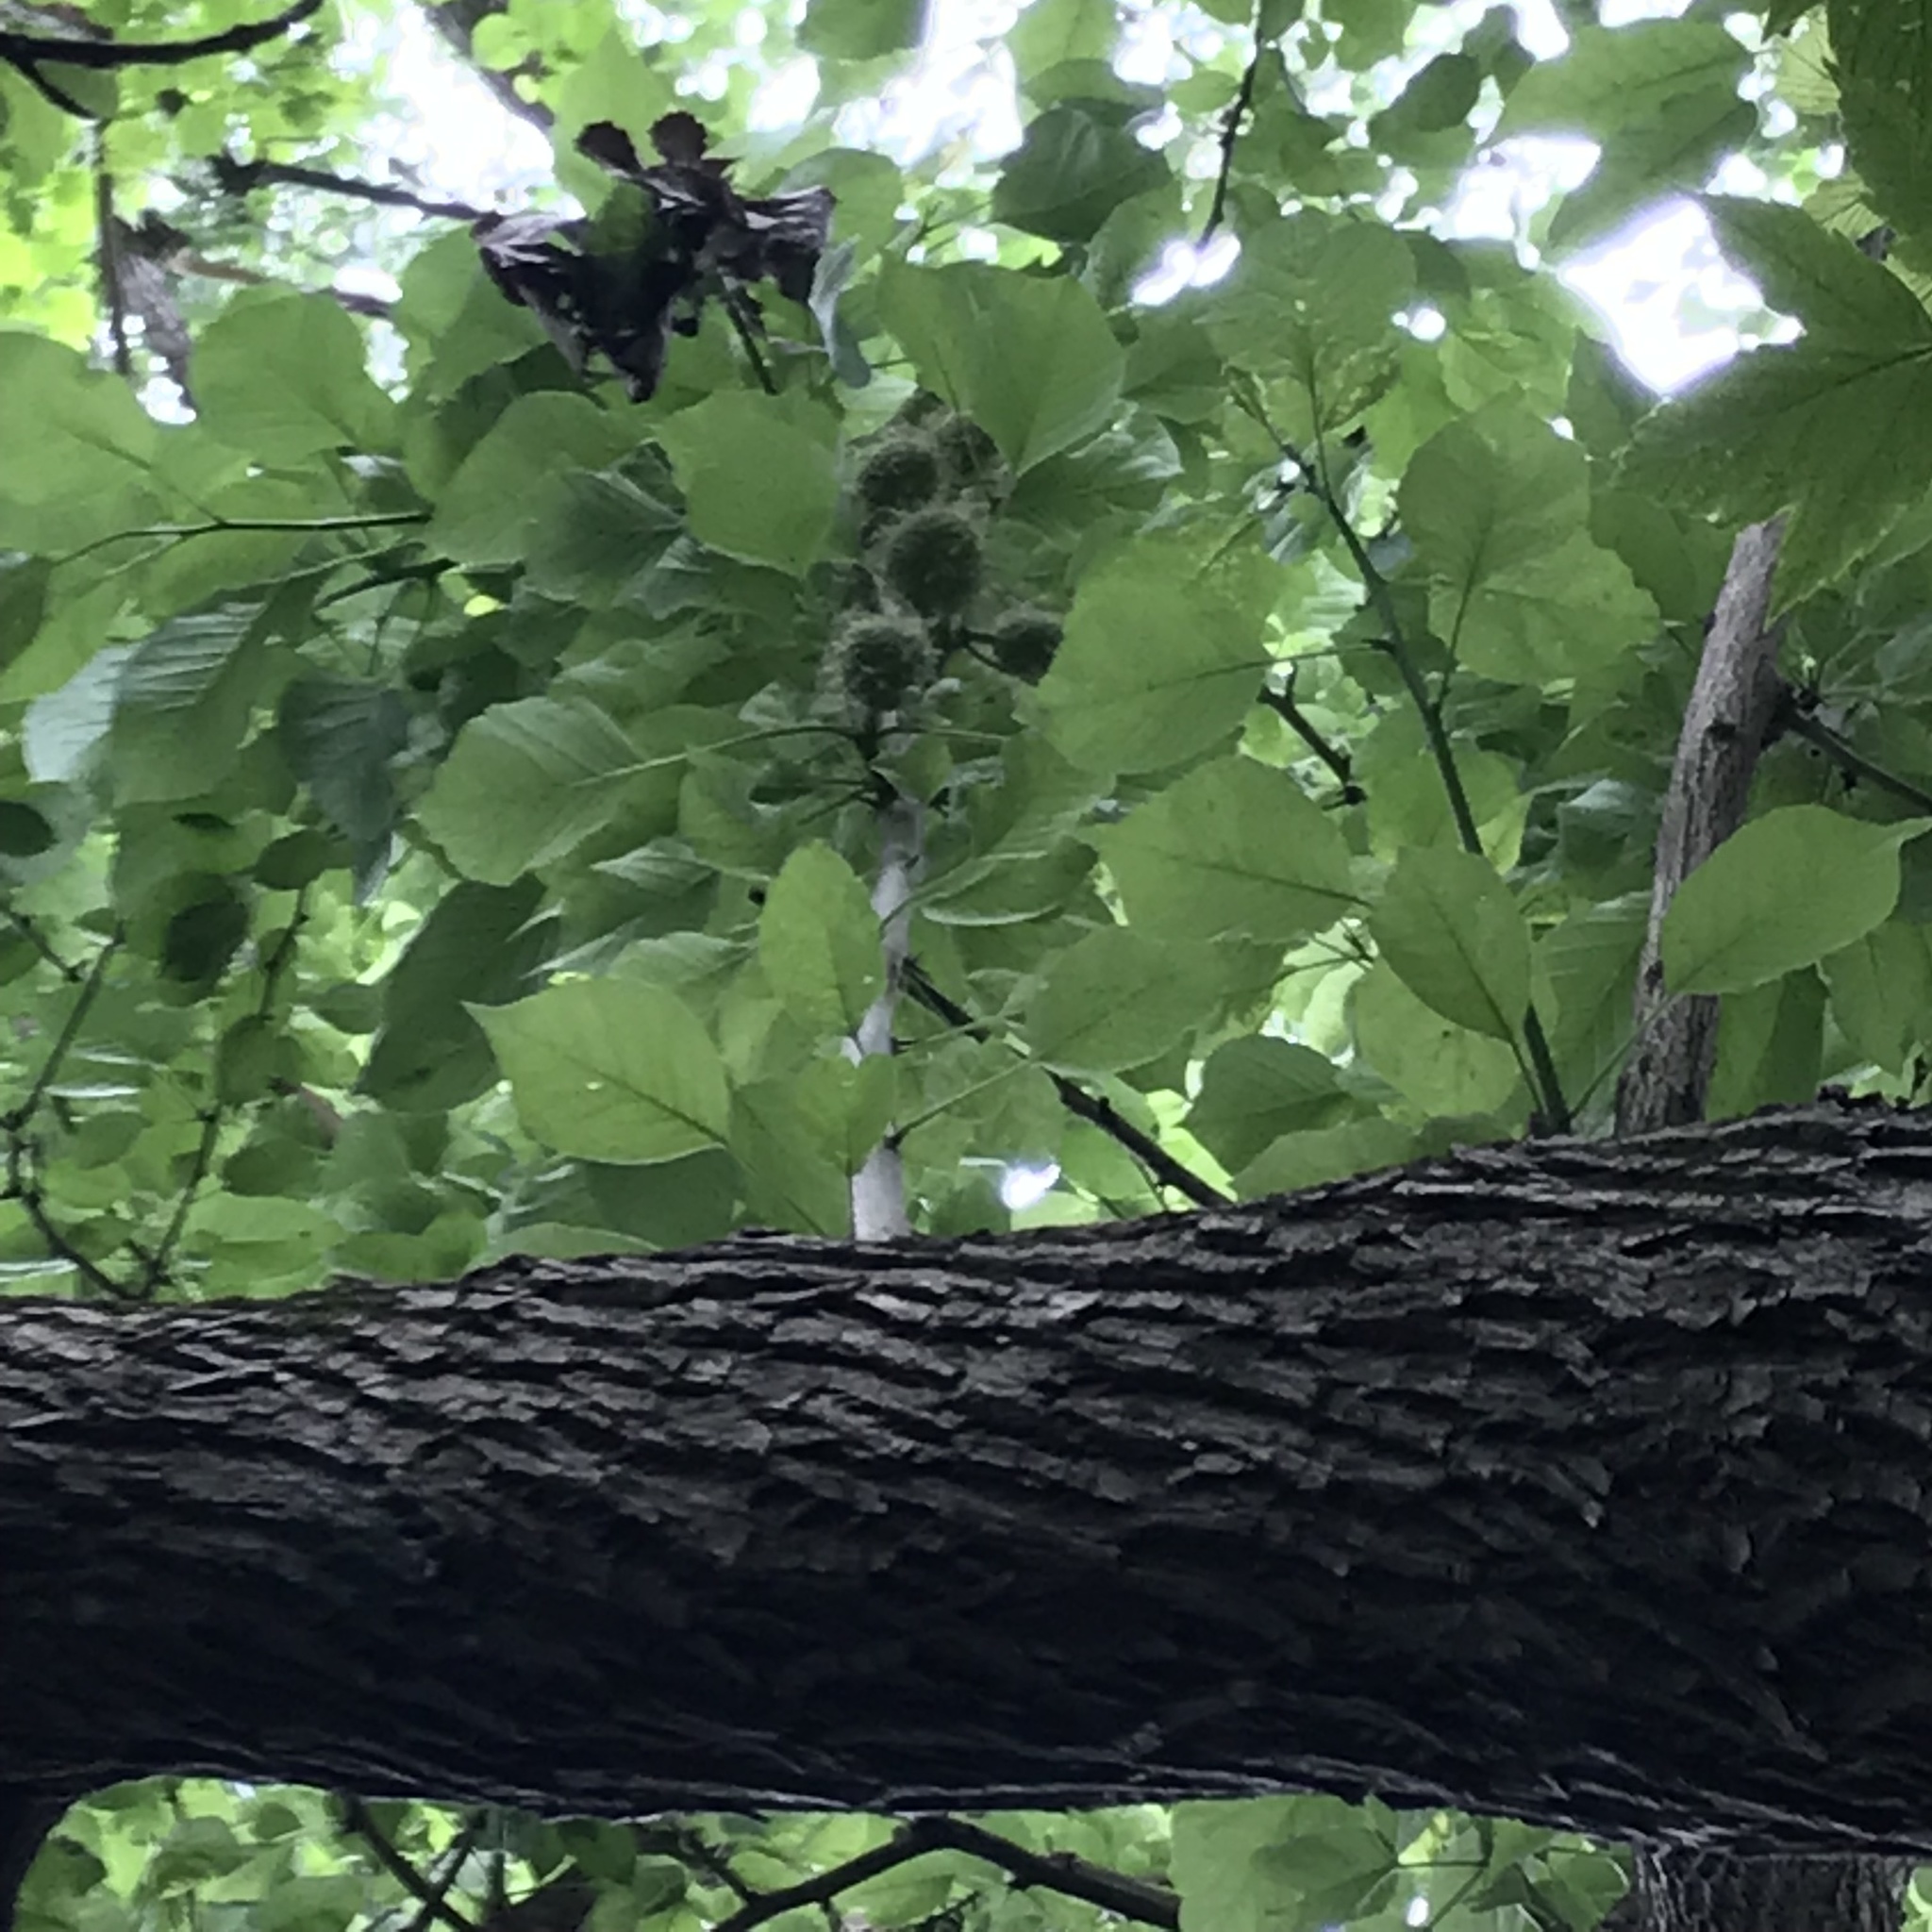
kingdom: Plantae
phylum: Tracheophyta
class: Magnoliopsida
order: Rosales
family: Moraceae
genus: Maclura
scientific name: Maclura pomifera
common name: Osage-orange
